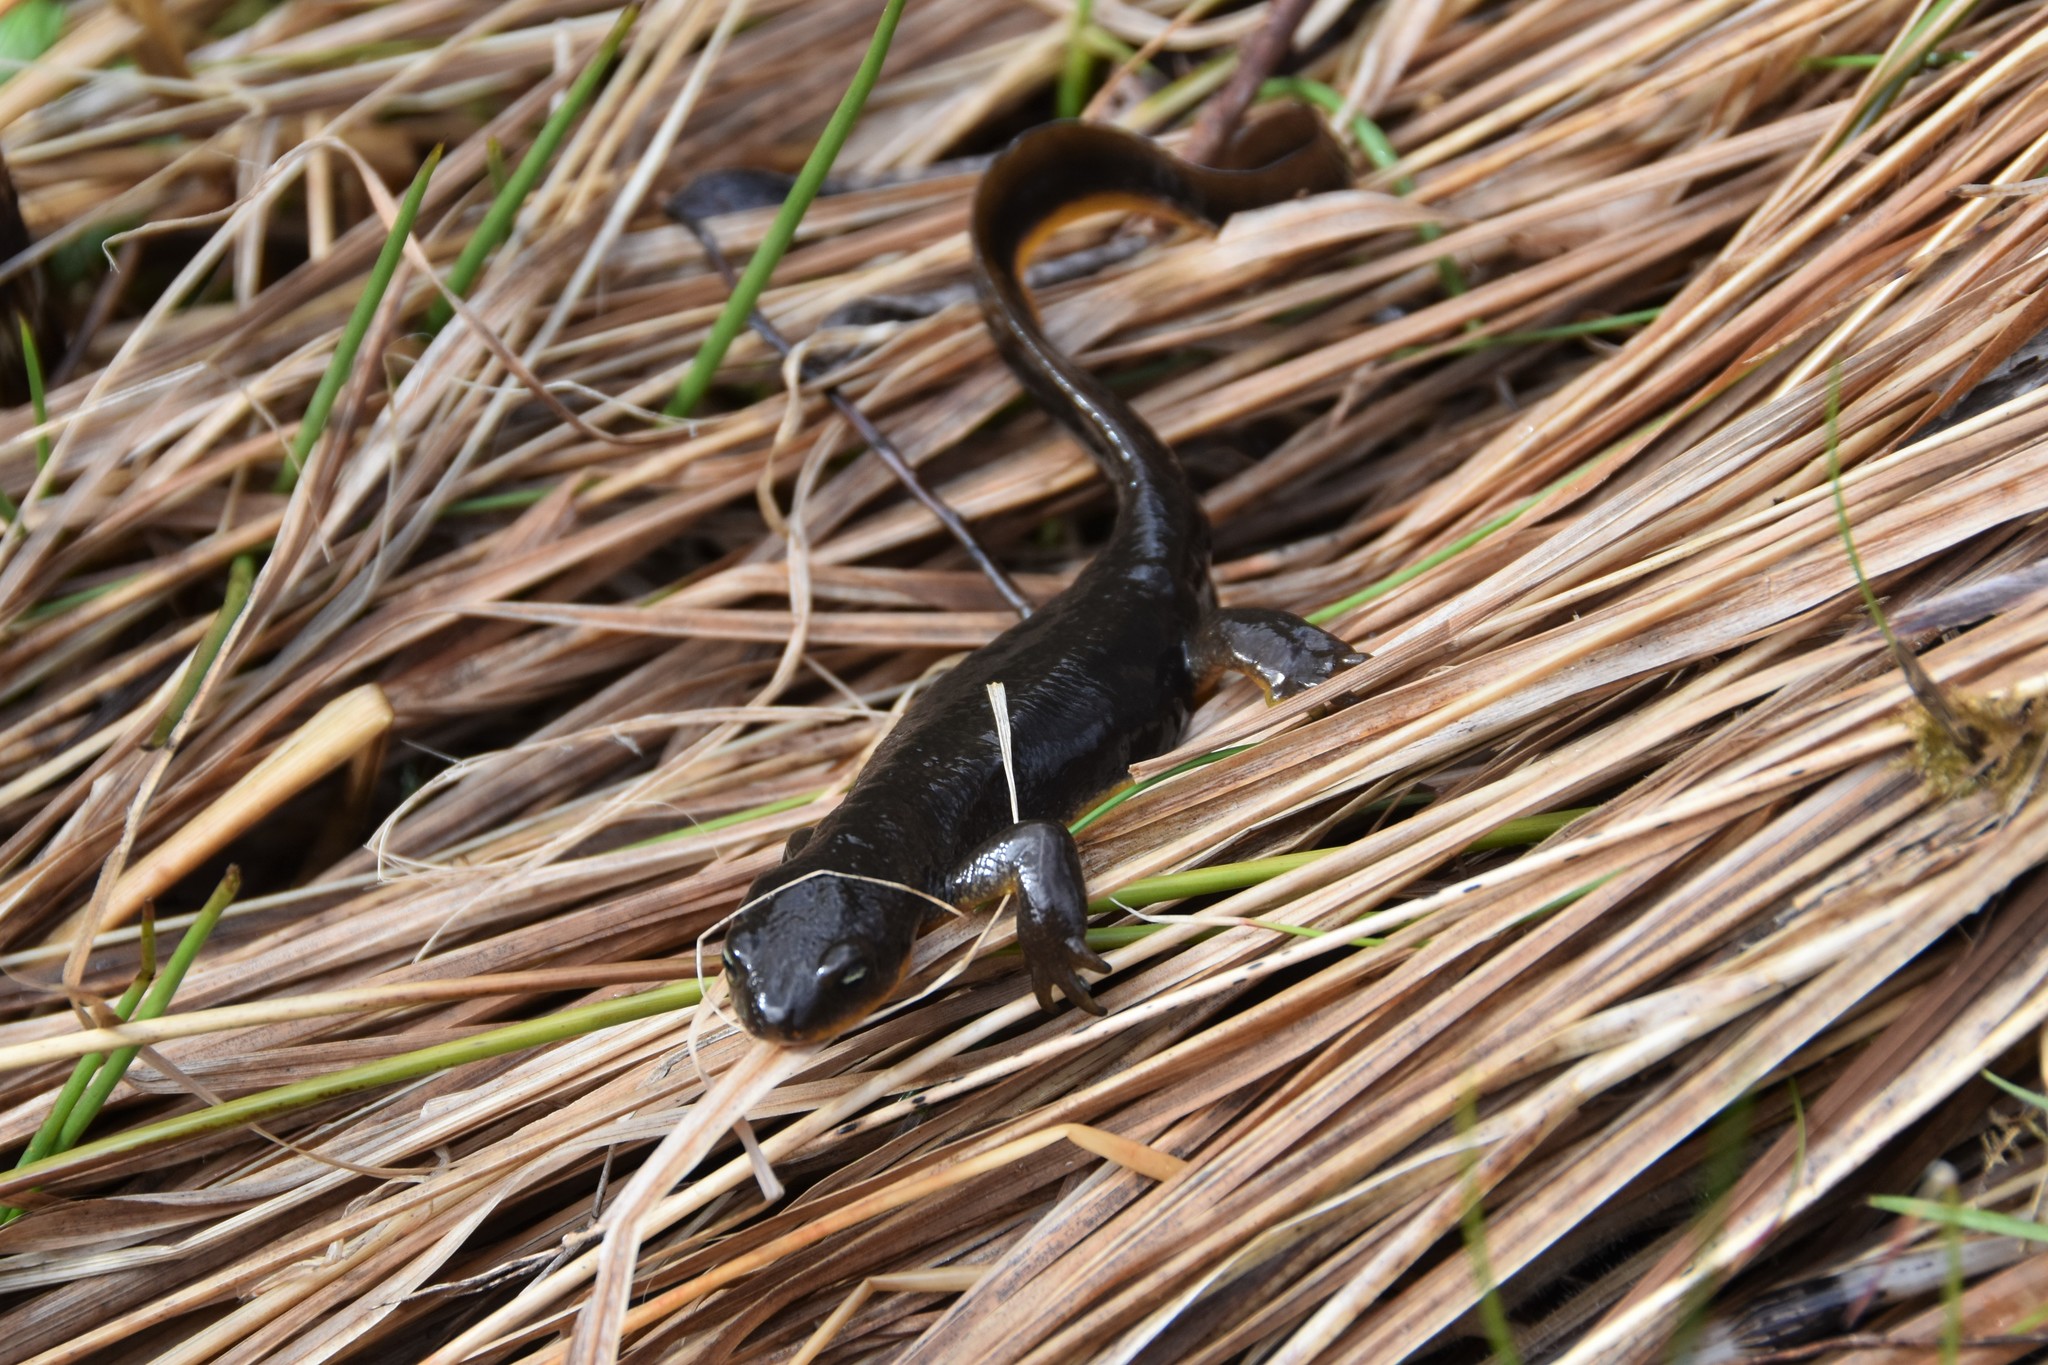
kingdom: Animalia
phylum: Chordata
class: Amphibia
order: Caudata
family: Salamandridae
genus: Taricha
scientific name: Taricha granulosa
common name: Roughskin newt
